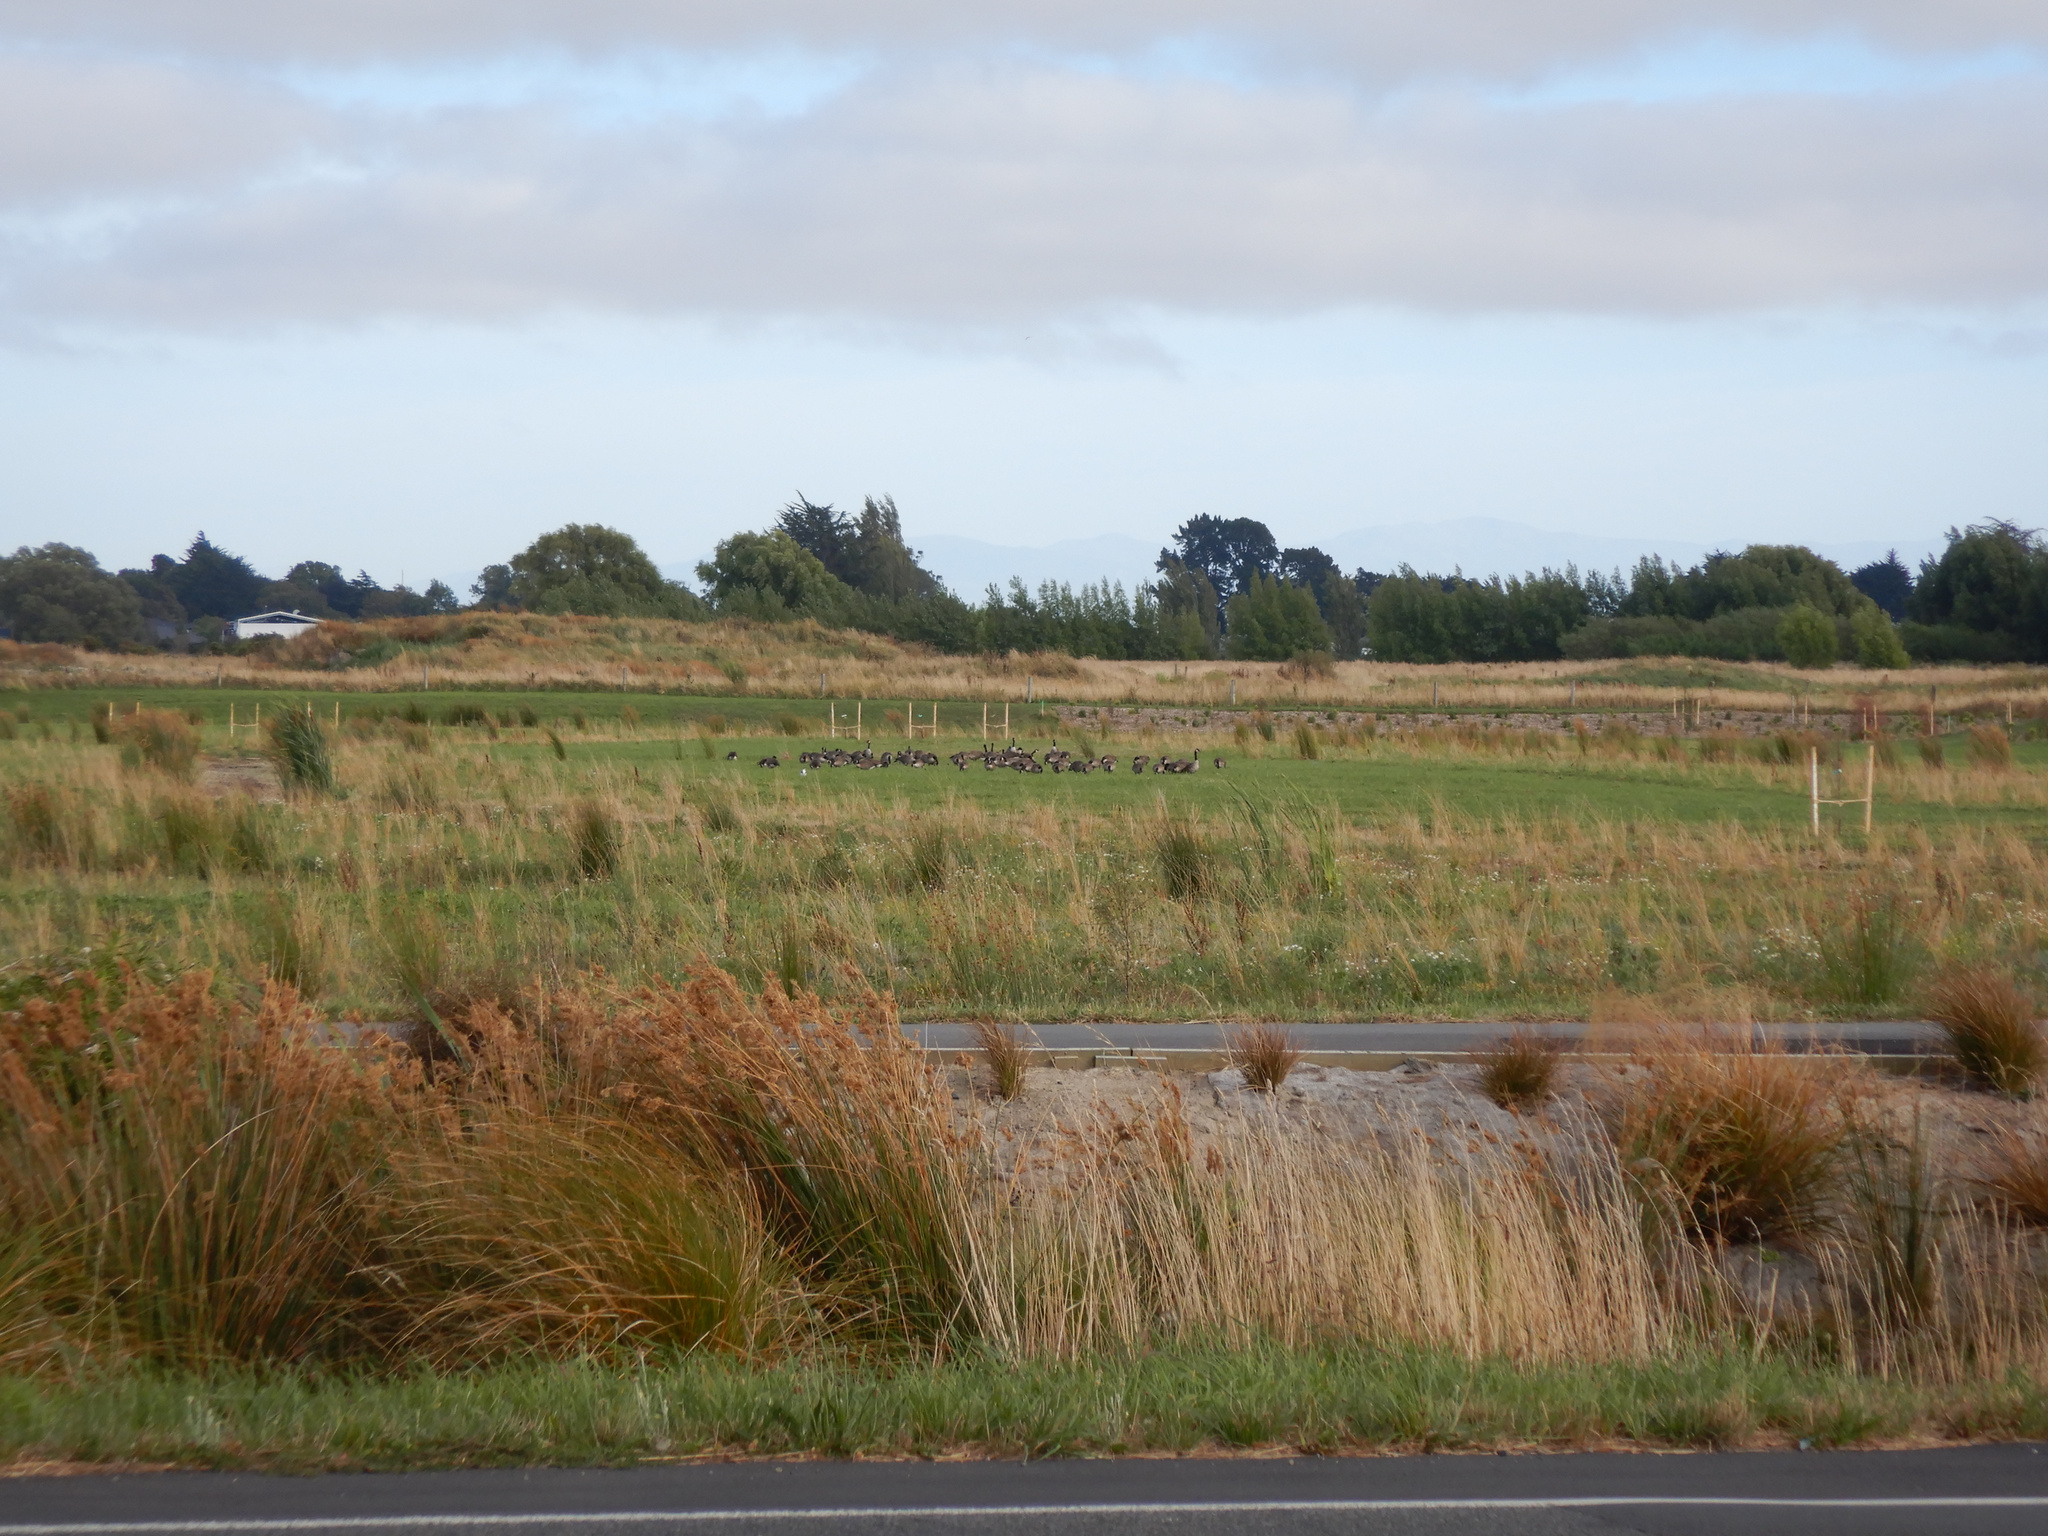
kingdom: Animalia
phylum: Chordata
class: Aves
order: Anseriformes
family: Anatidae
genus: Branta
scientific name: Branta canadensis
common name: Canada goose
